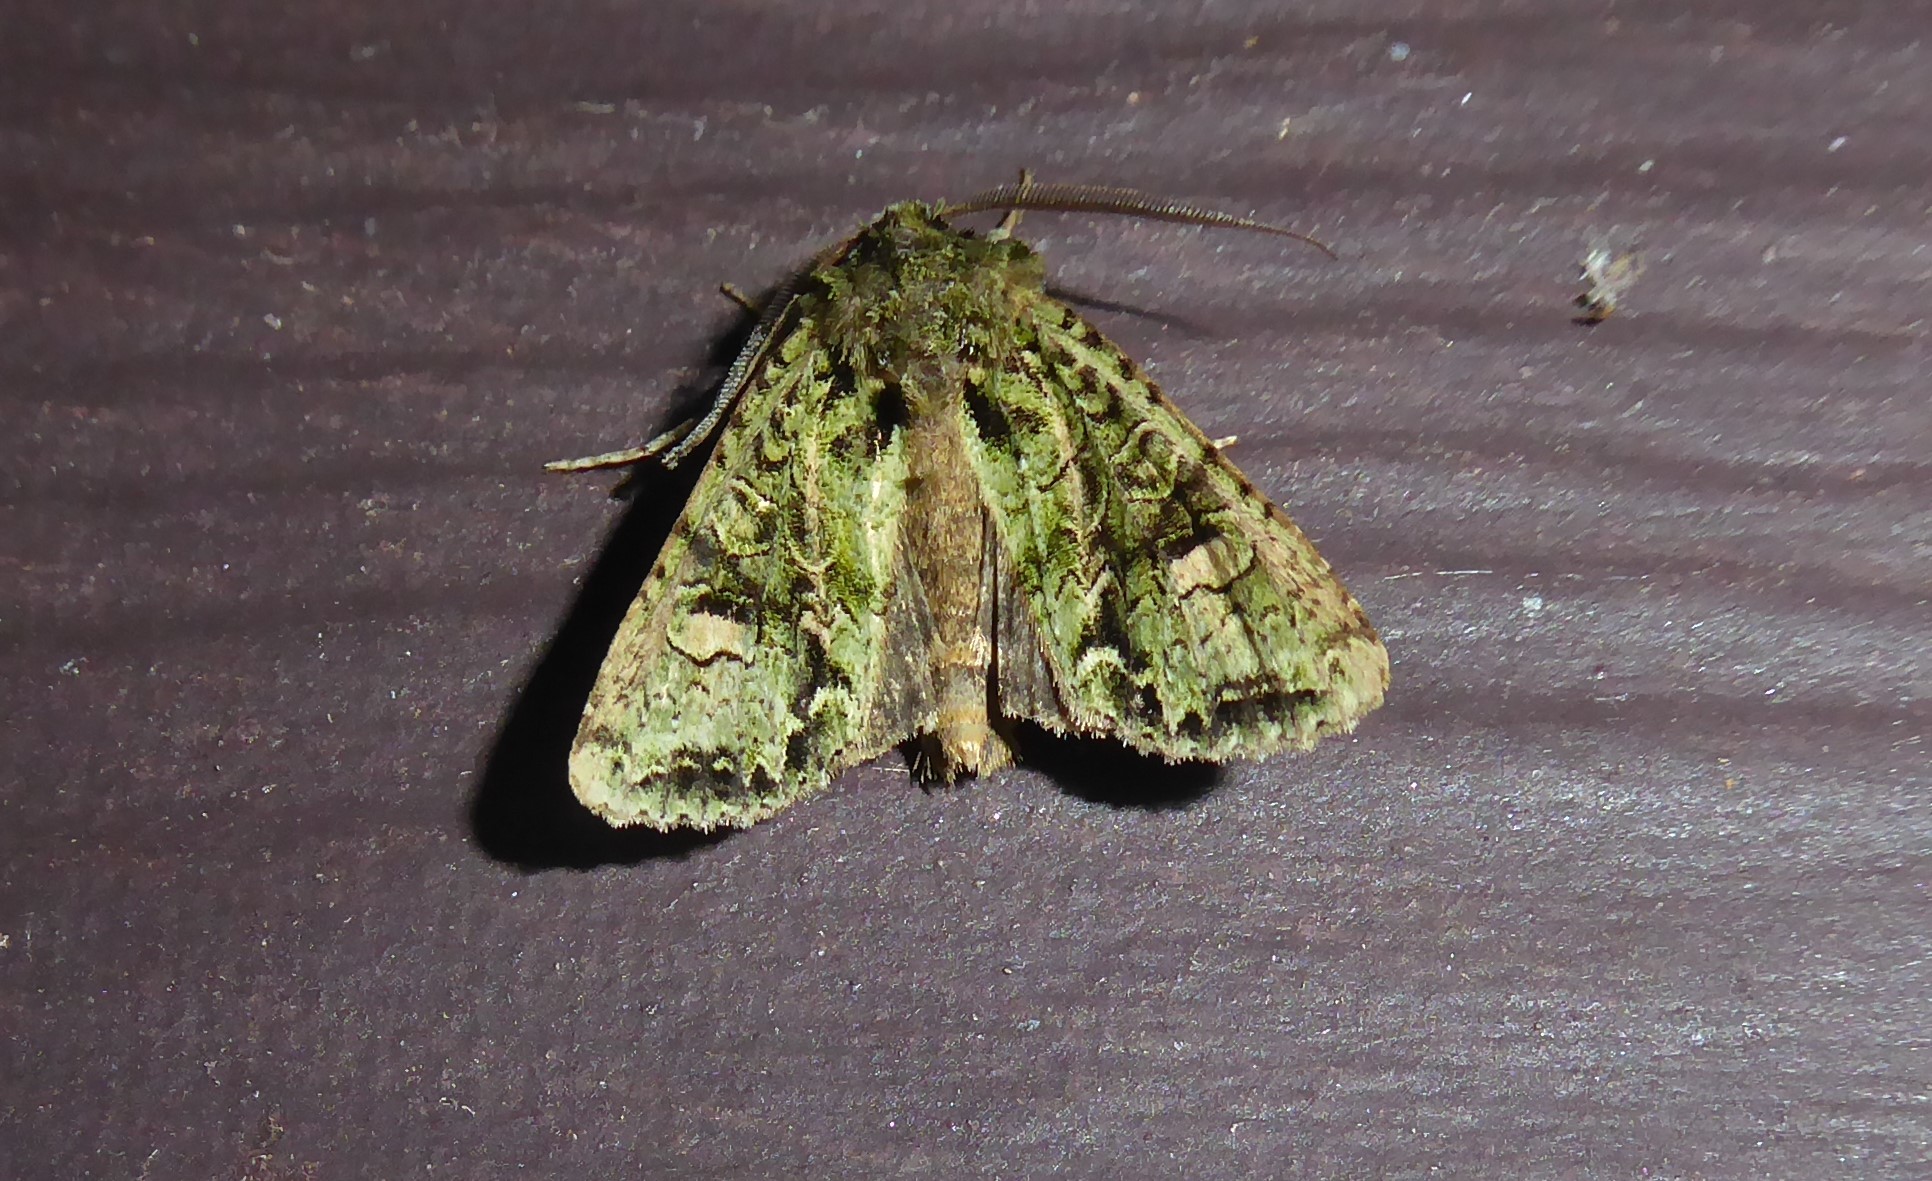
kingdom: Animalia
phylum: Arthropoda
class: Insecta
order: Lepidoptera
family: Noctuidae
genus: Ichneutica
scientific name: Ichneutica
